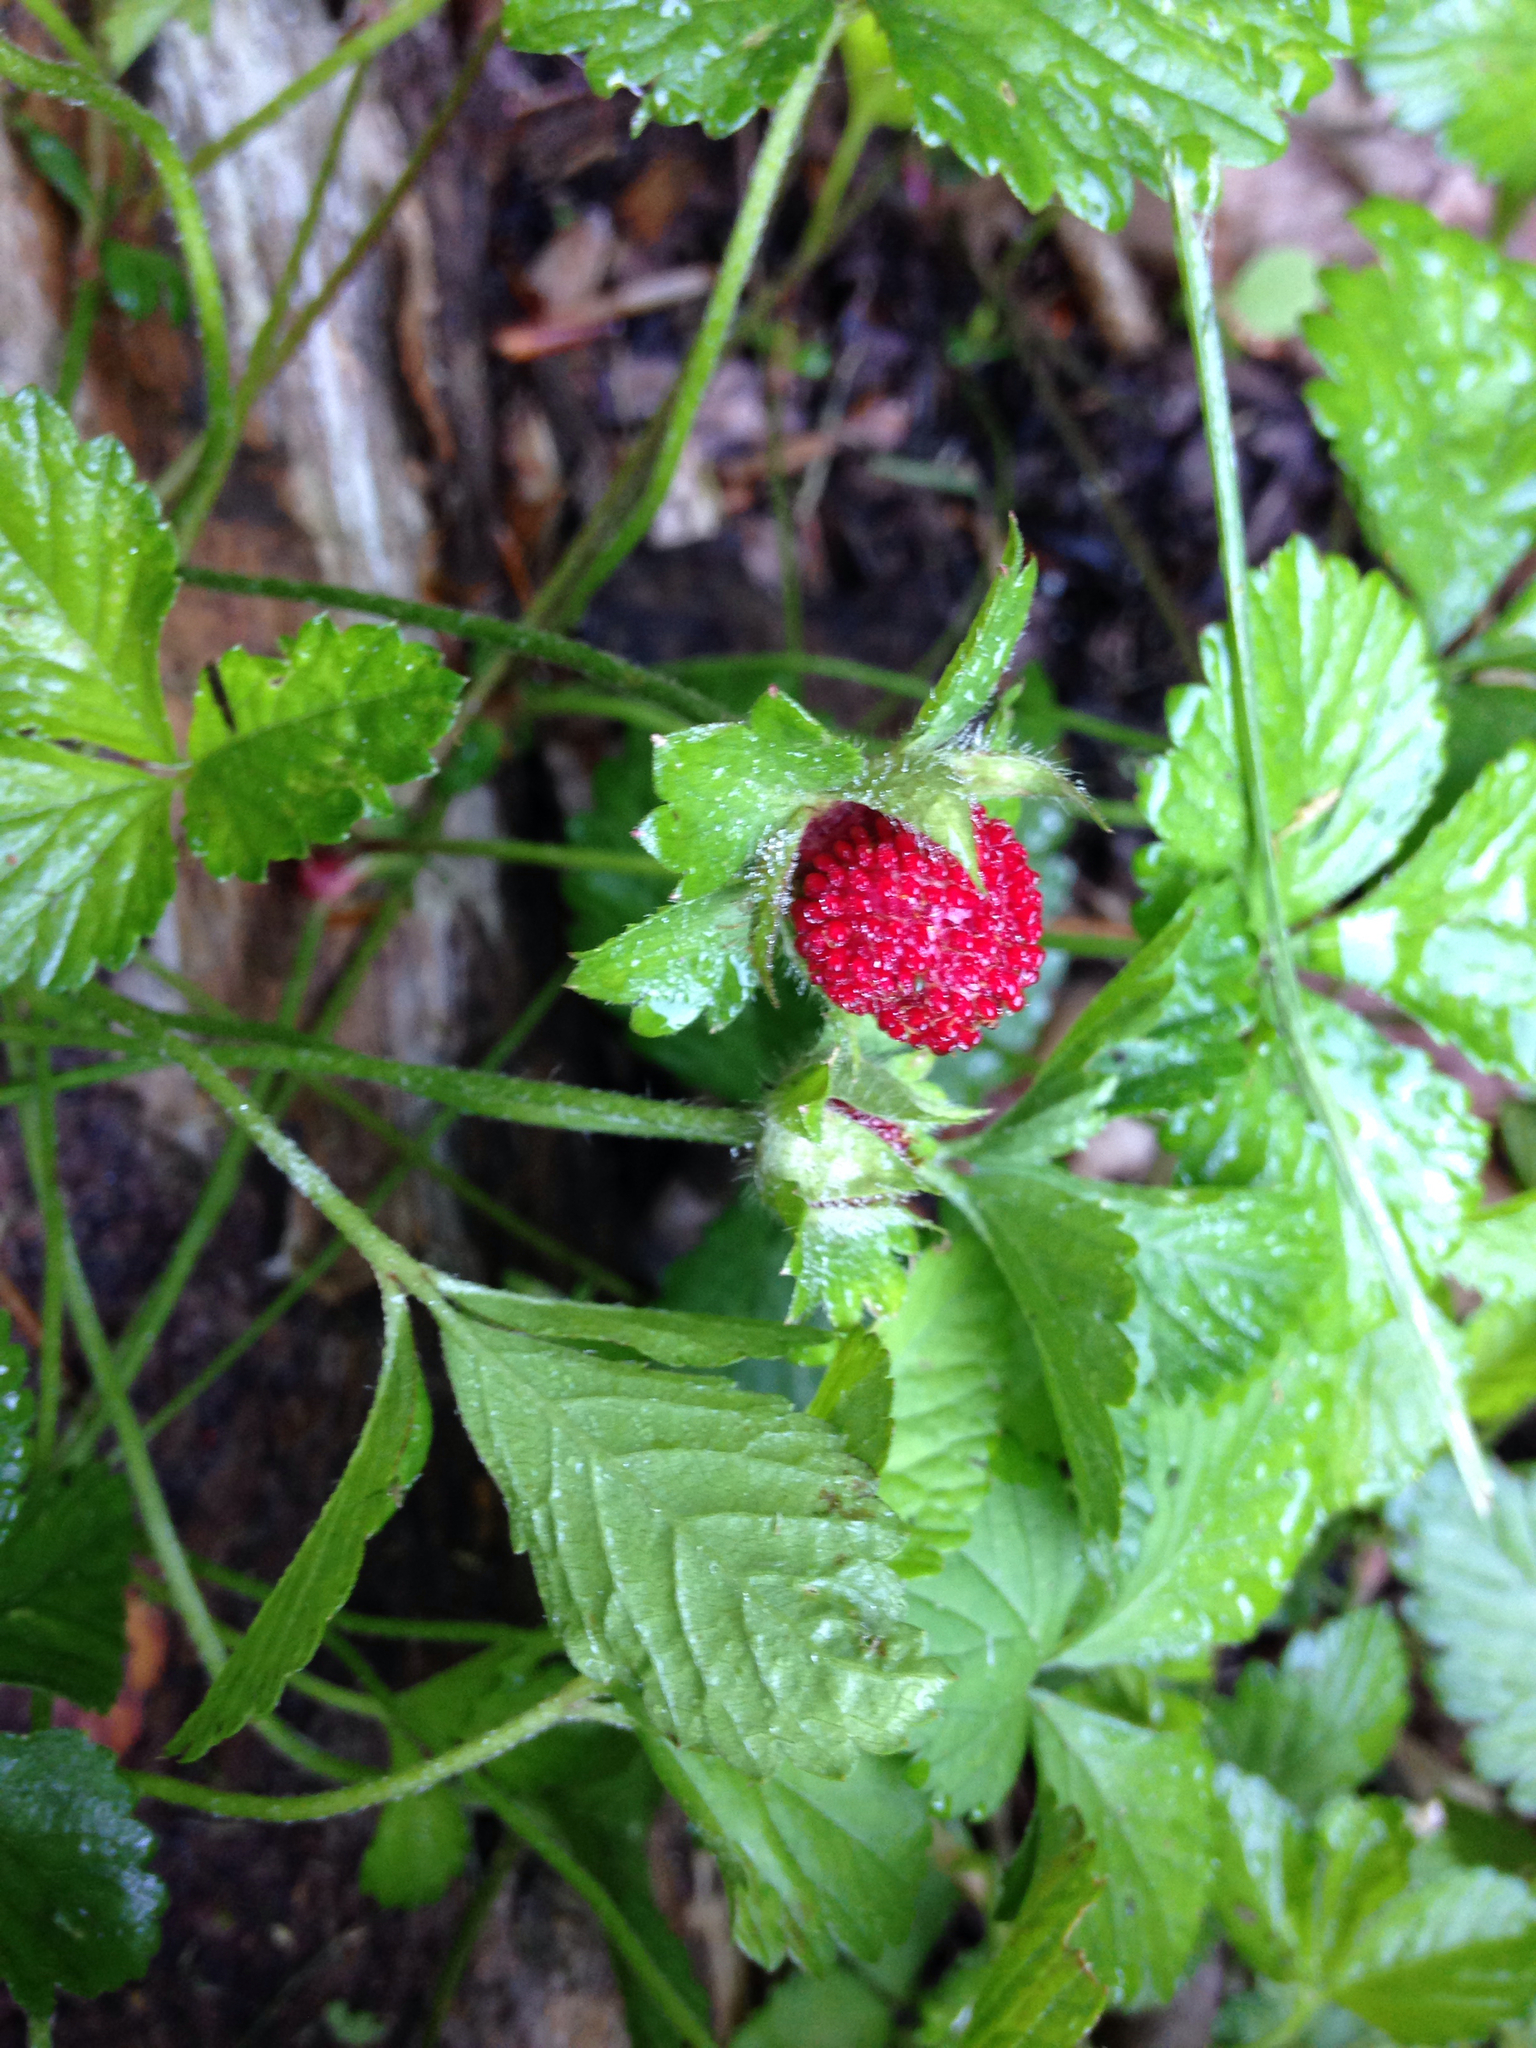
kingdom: Plantae
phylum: Tracheophyta
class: Magnoliopsida
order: Rosales
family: Rosaceae
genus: Potentilla
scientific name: Potentilla indica
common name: Yellow-flowered strawberry
